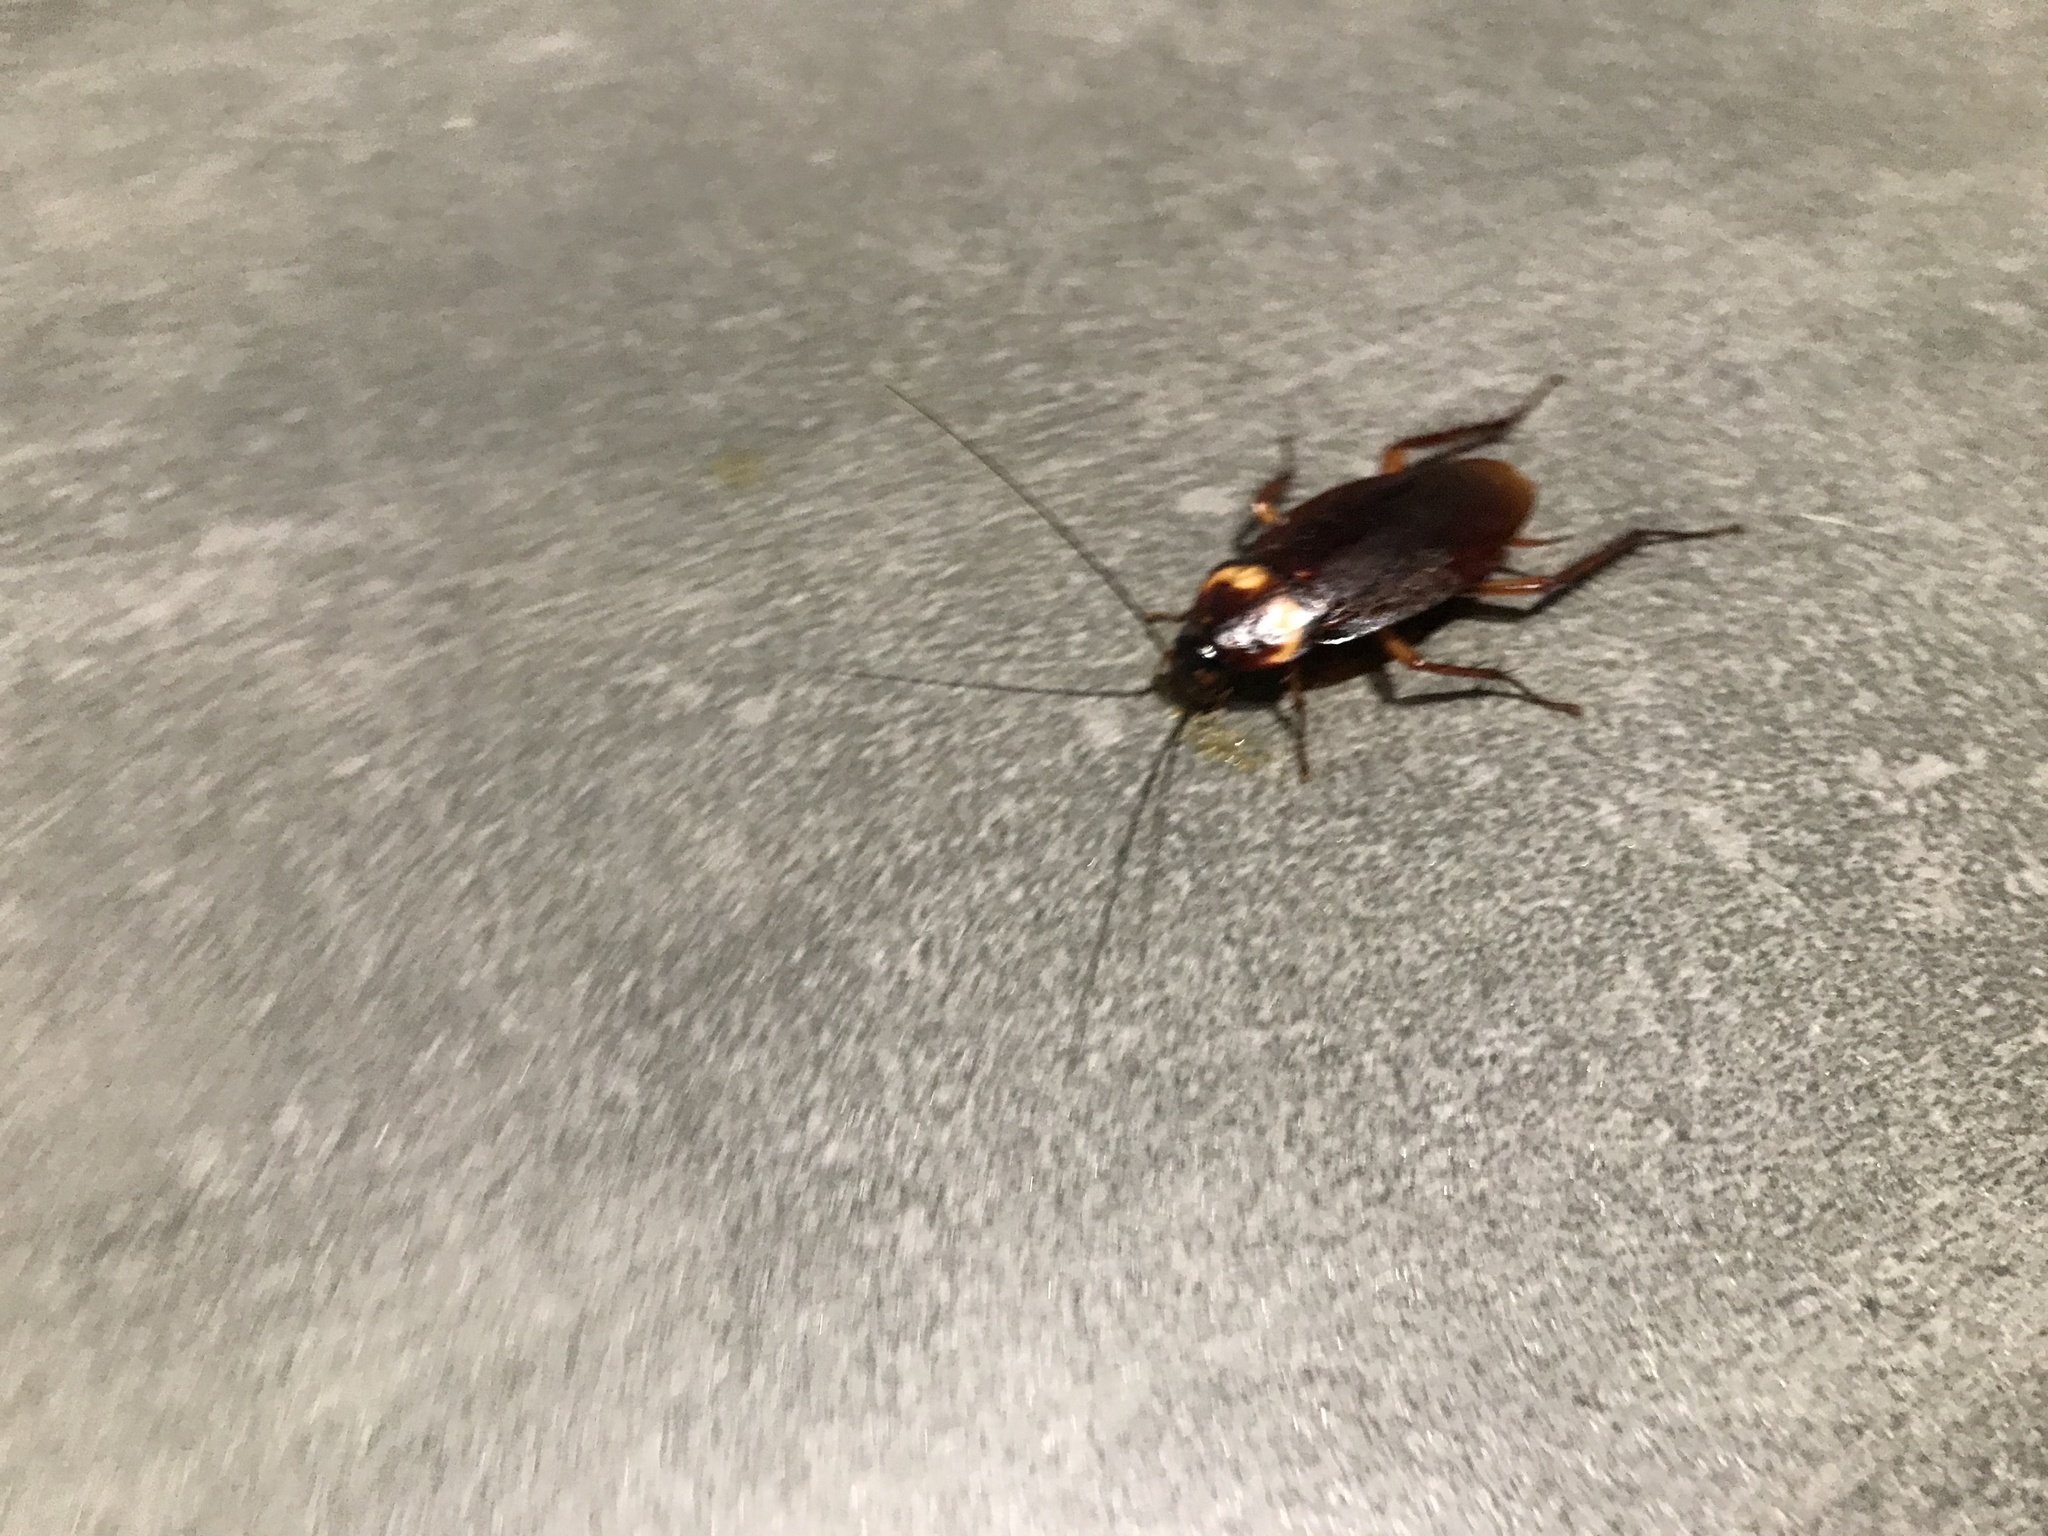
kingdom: Animalia
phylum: Arthropoda
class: Insecta
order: Blattodea
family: Blattidae
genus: Periplaneta
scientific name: Periplaneta americana
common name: American cockroach
